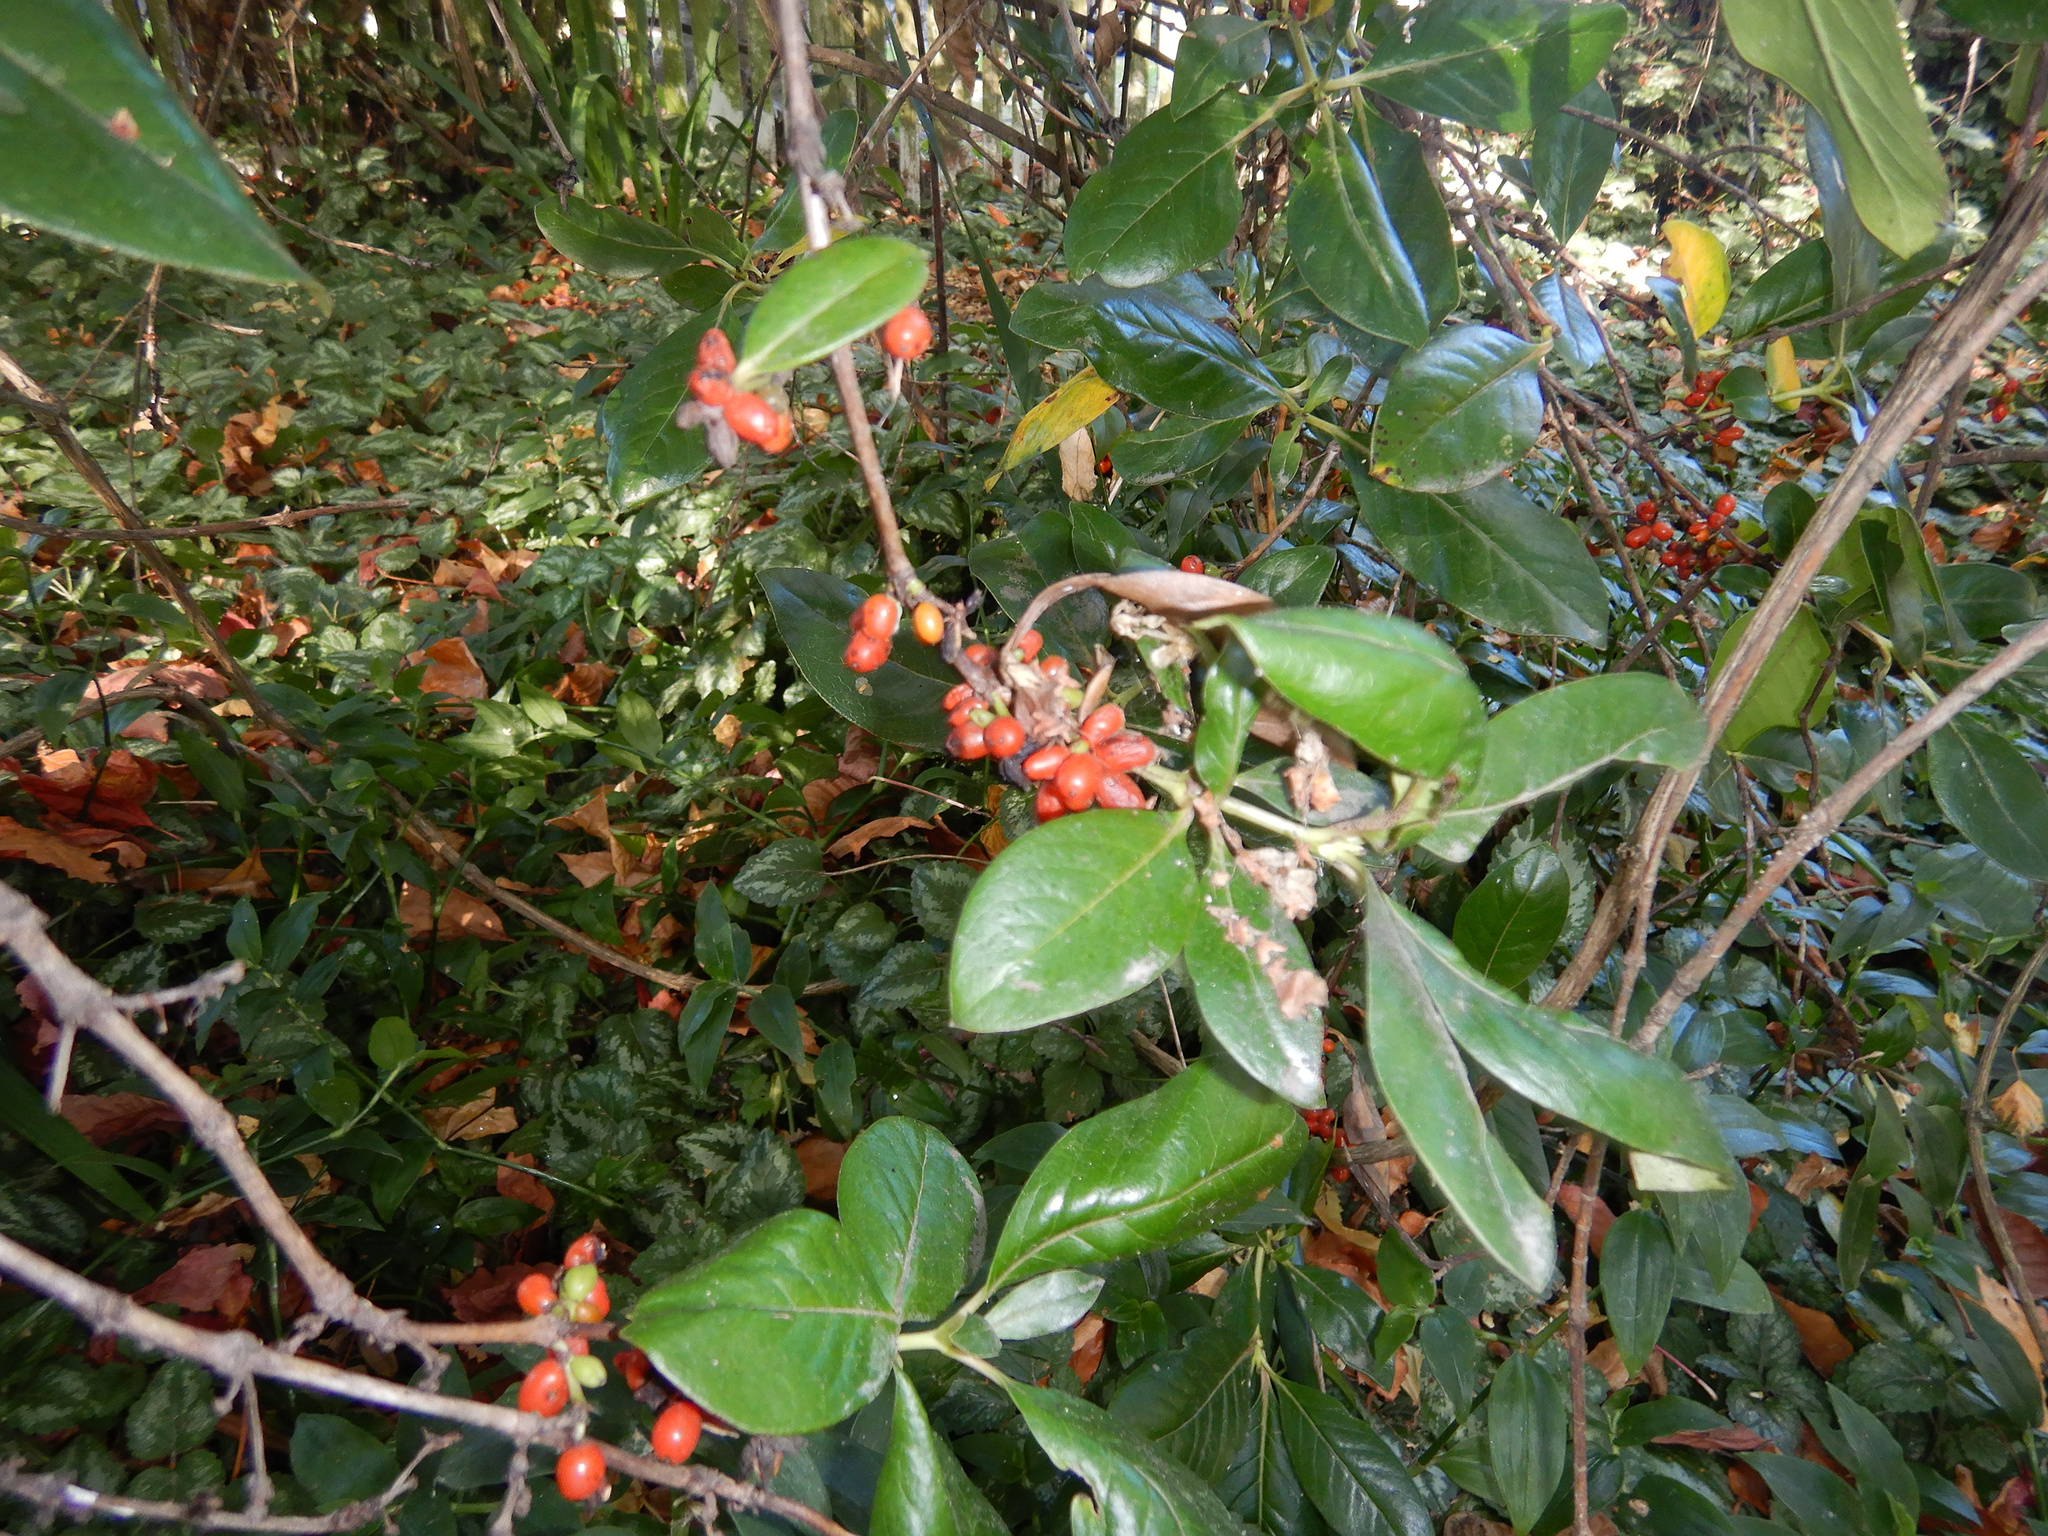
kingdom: Plantae
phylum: Tracheophyta
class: Magnoliopsida
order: Gentianales
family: Rubiaceae
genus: Coprosma
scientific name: Coprosma robusta
